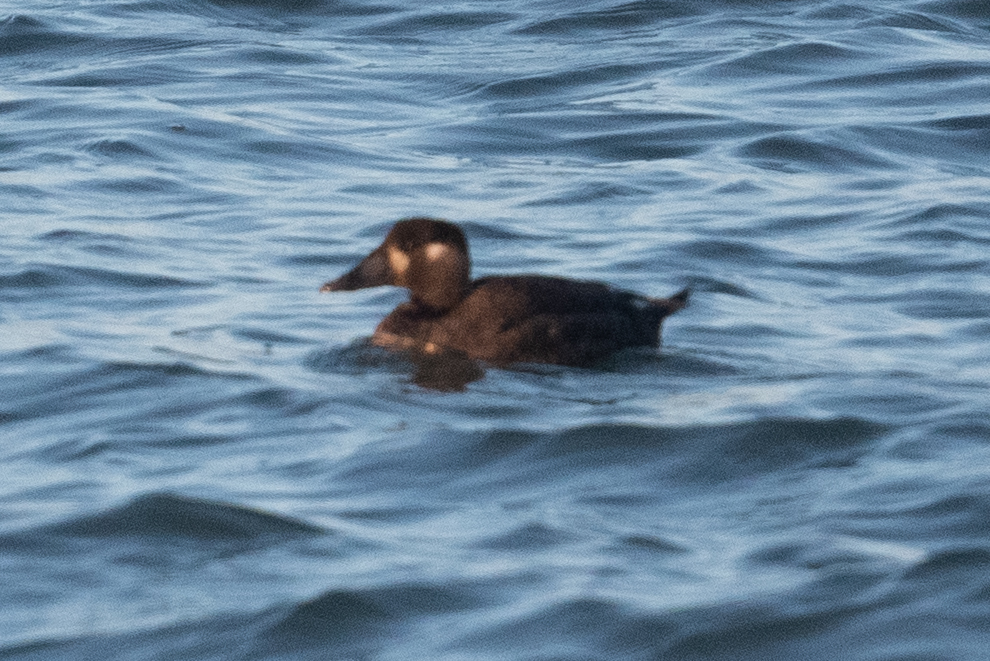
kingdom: Animalia
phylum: Chordata
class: Aves
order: Anseriformes
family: Anatidae
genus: Melanitta
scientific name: Melanitta perspicillata
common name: Surf scoter
